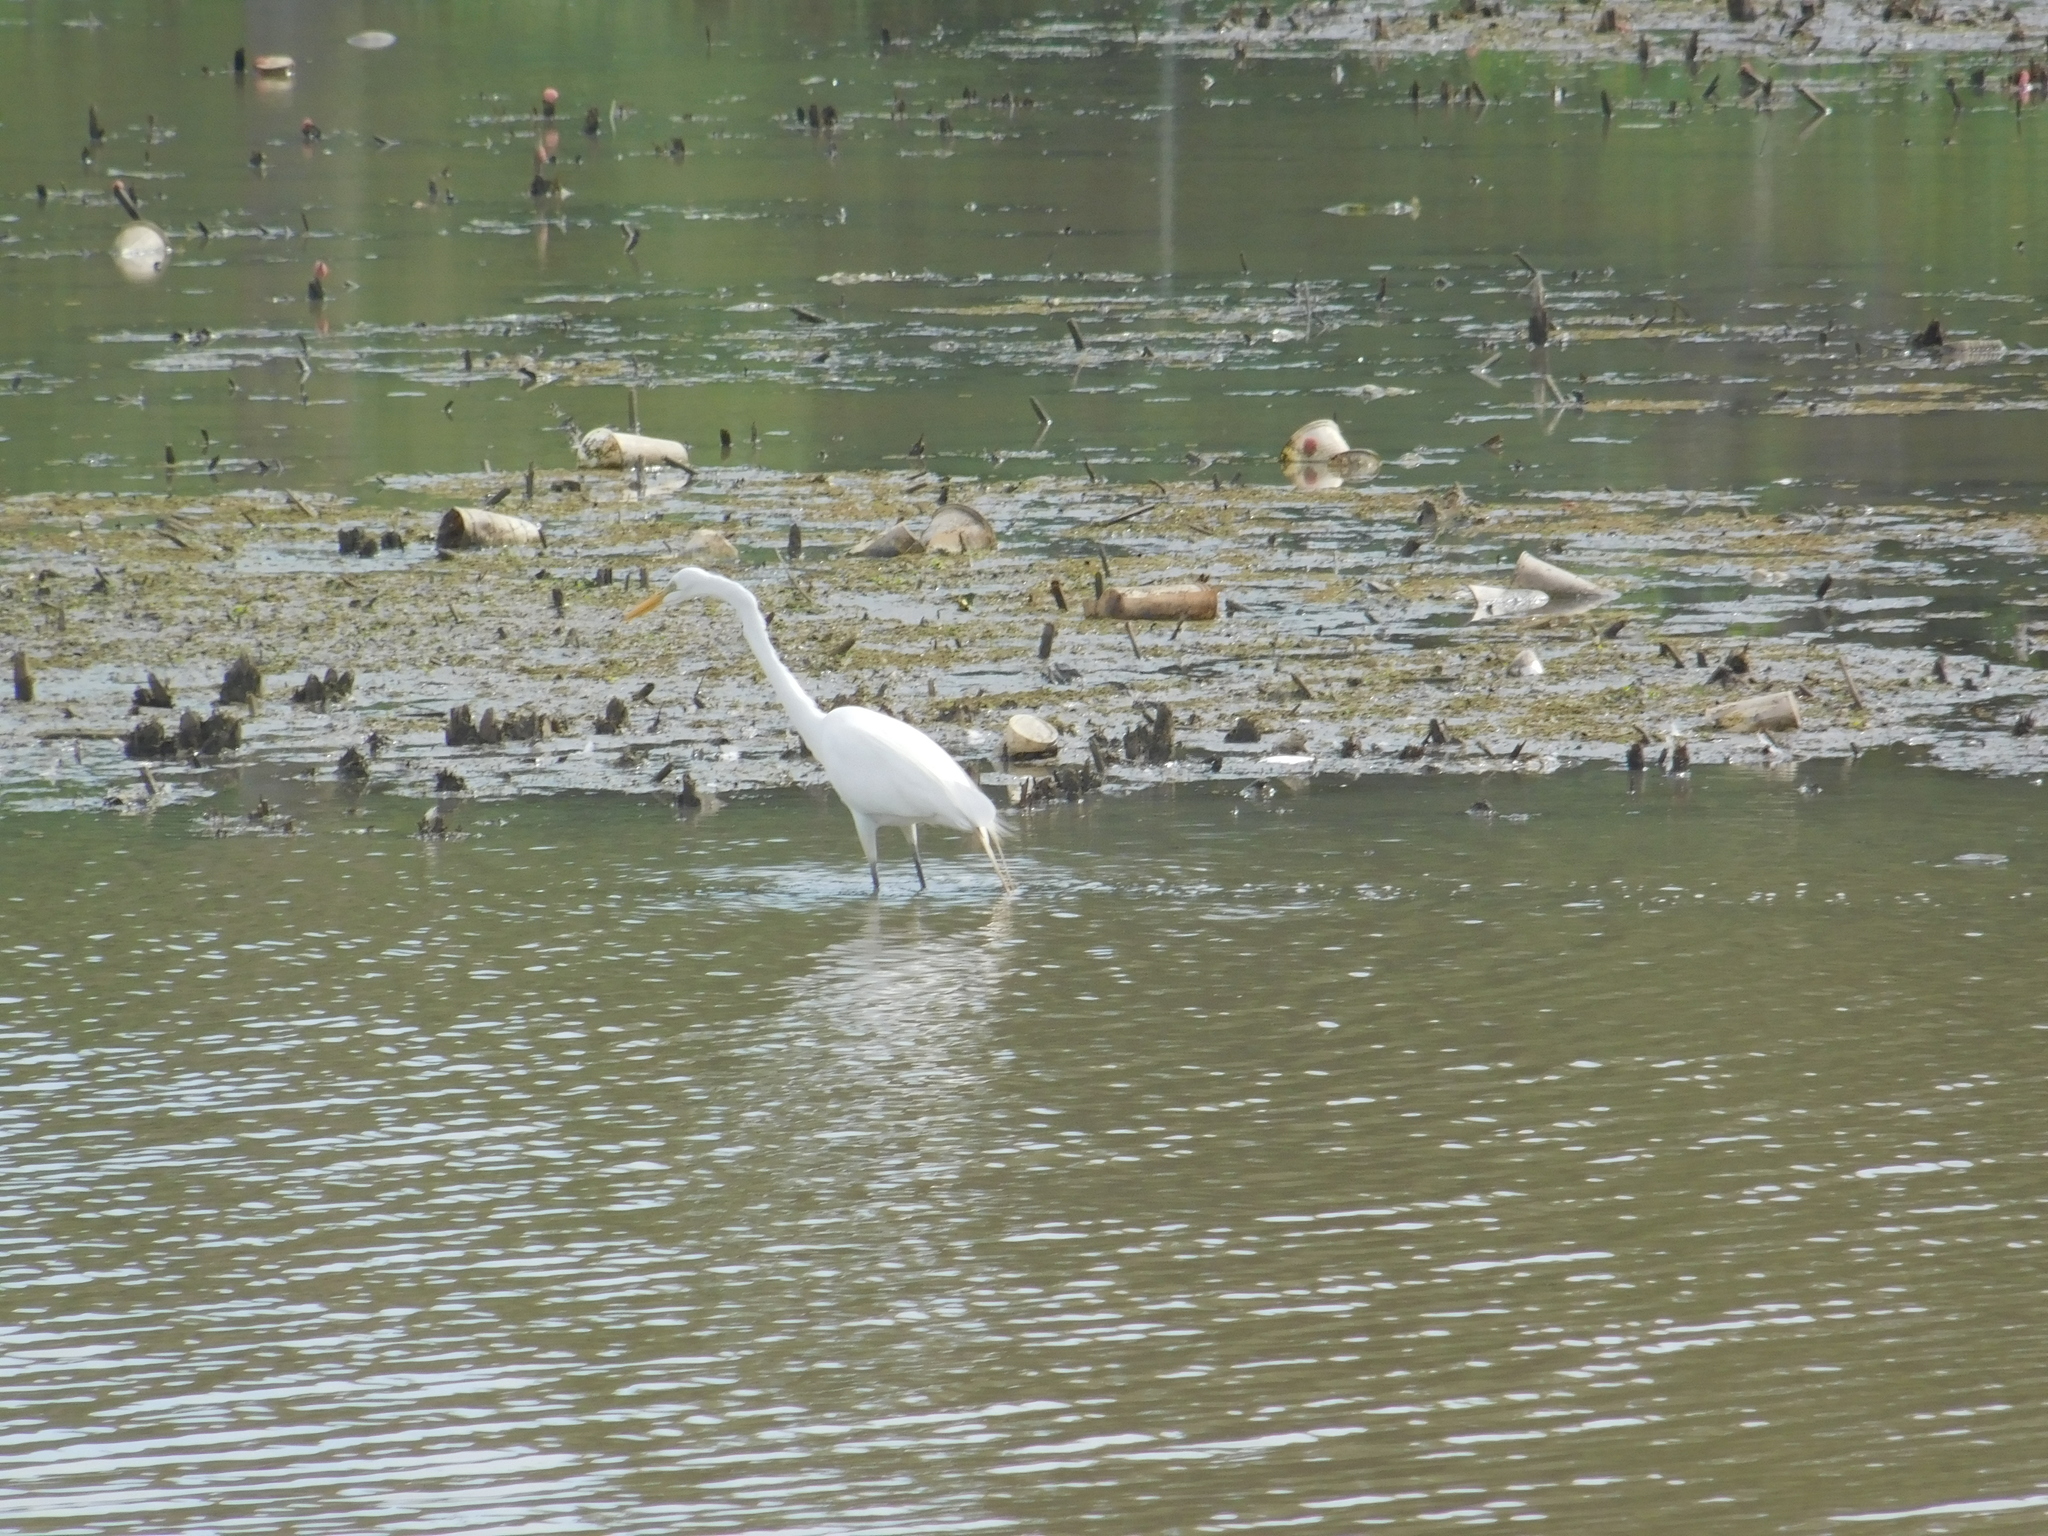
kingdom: Animalia
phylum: Chordata
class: Aves
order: Pelecaniformes
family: Ardeidae
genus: Ardea
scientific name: Ardea alba
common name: Great egret
